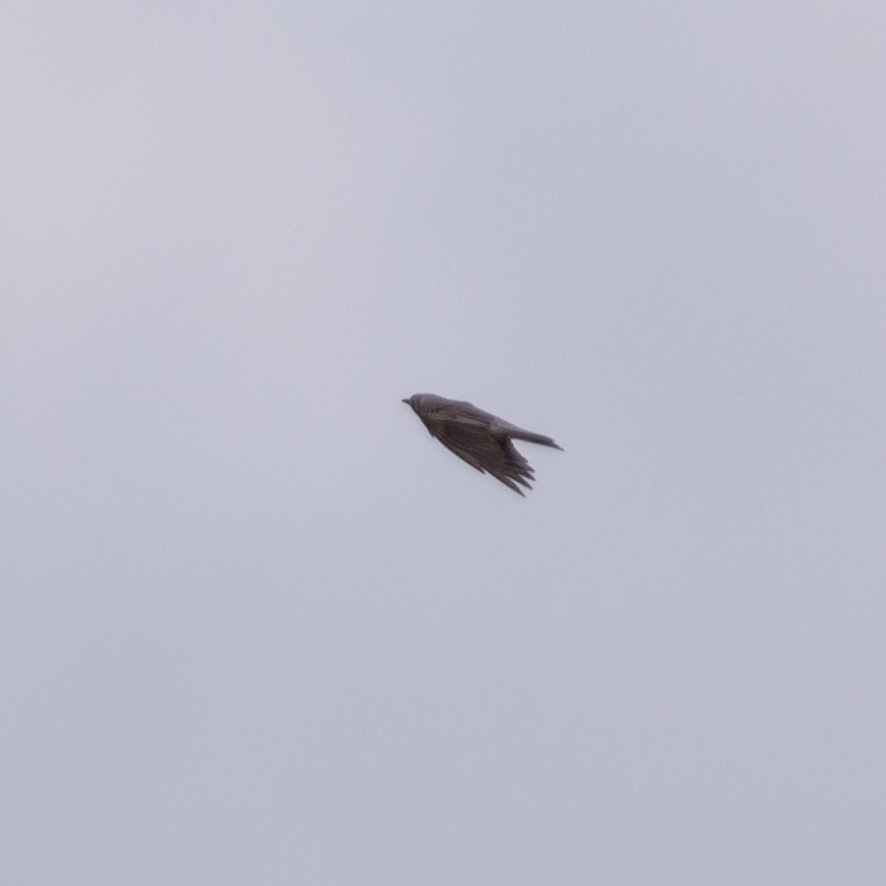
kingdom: Animalia
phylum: Chordata
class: Aves
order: Passeriformes
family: Turdidae
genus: Turdus
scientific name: Turdus viscivorus
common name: Mistle thrush
